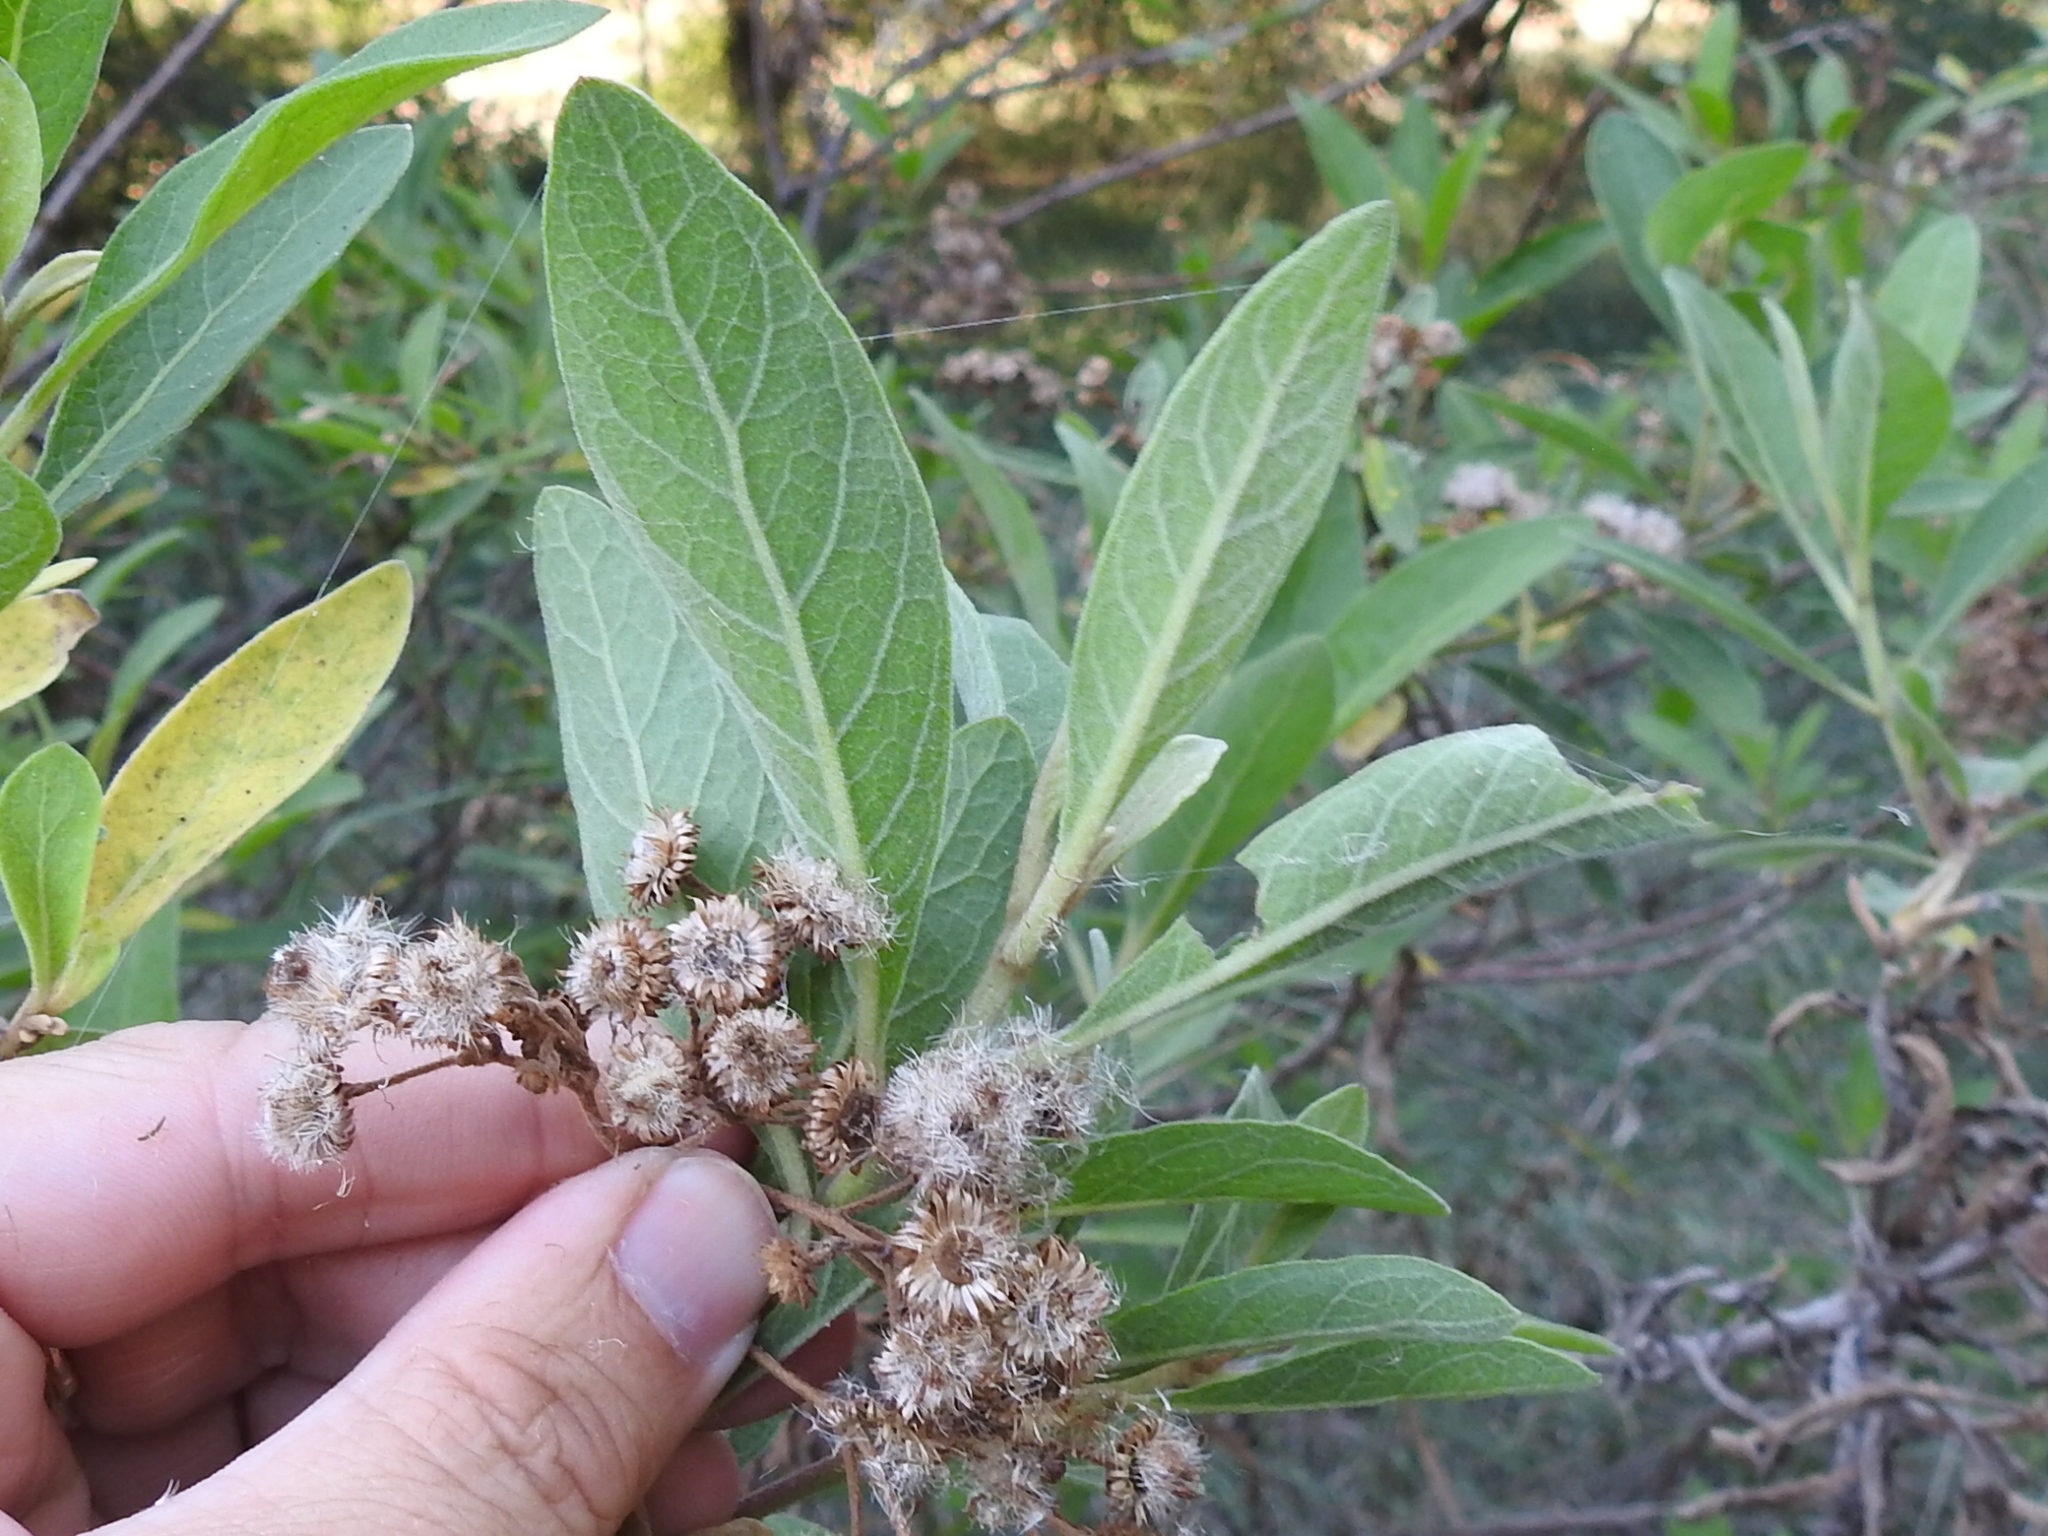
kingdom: Plantae
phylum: Tracheophyta
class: Magnoliopsida
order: Asterales
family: Asteraceae
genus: Pluchea
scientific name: Pluchea carolinensis
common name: Marsh fleabane
